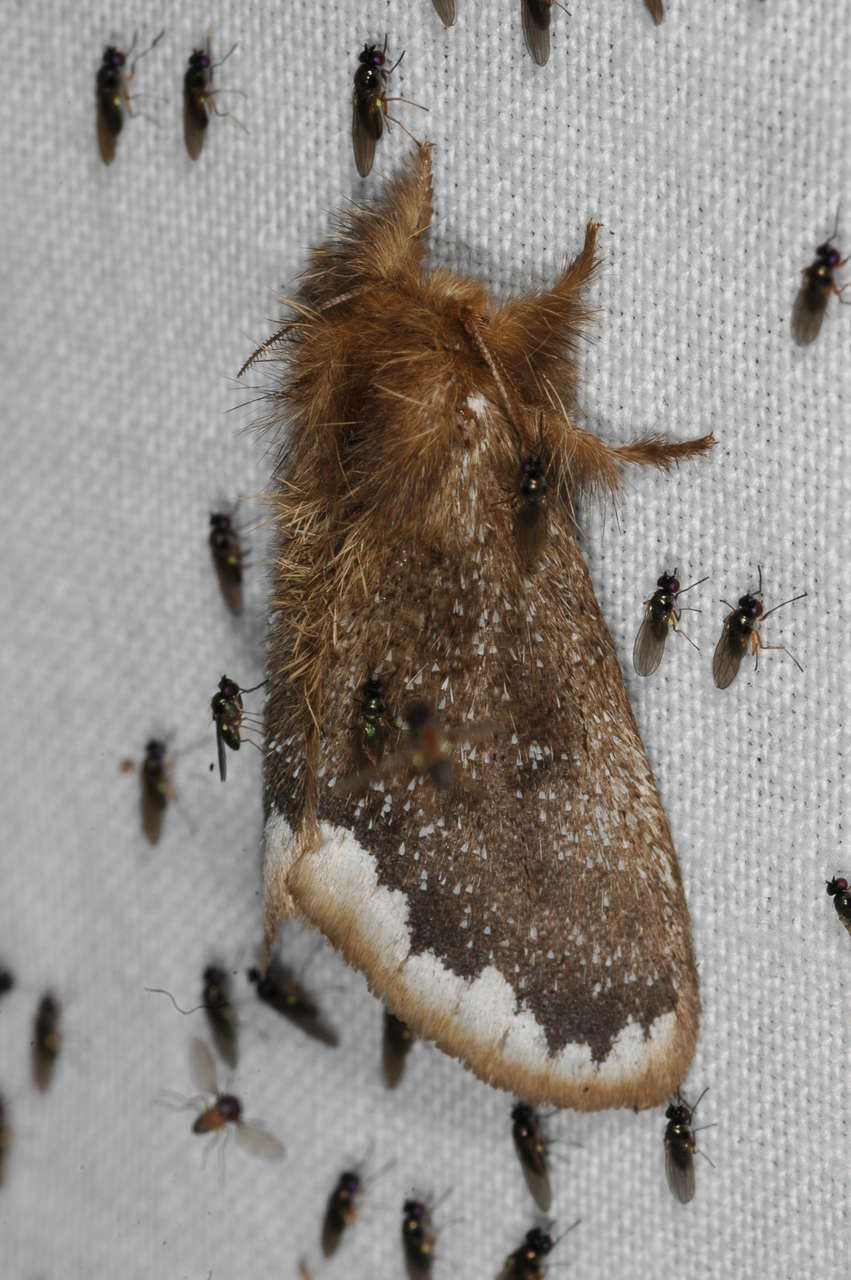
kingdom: Animalia
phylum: Arthropoda
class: Insecta
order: Lepidoptera
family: Erebidae
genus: Euproctis
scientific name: Euproctis
